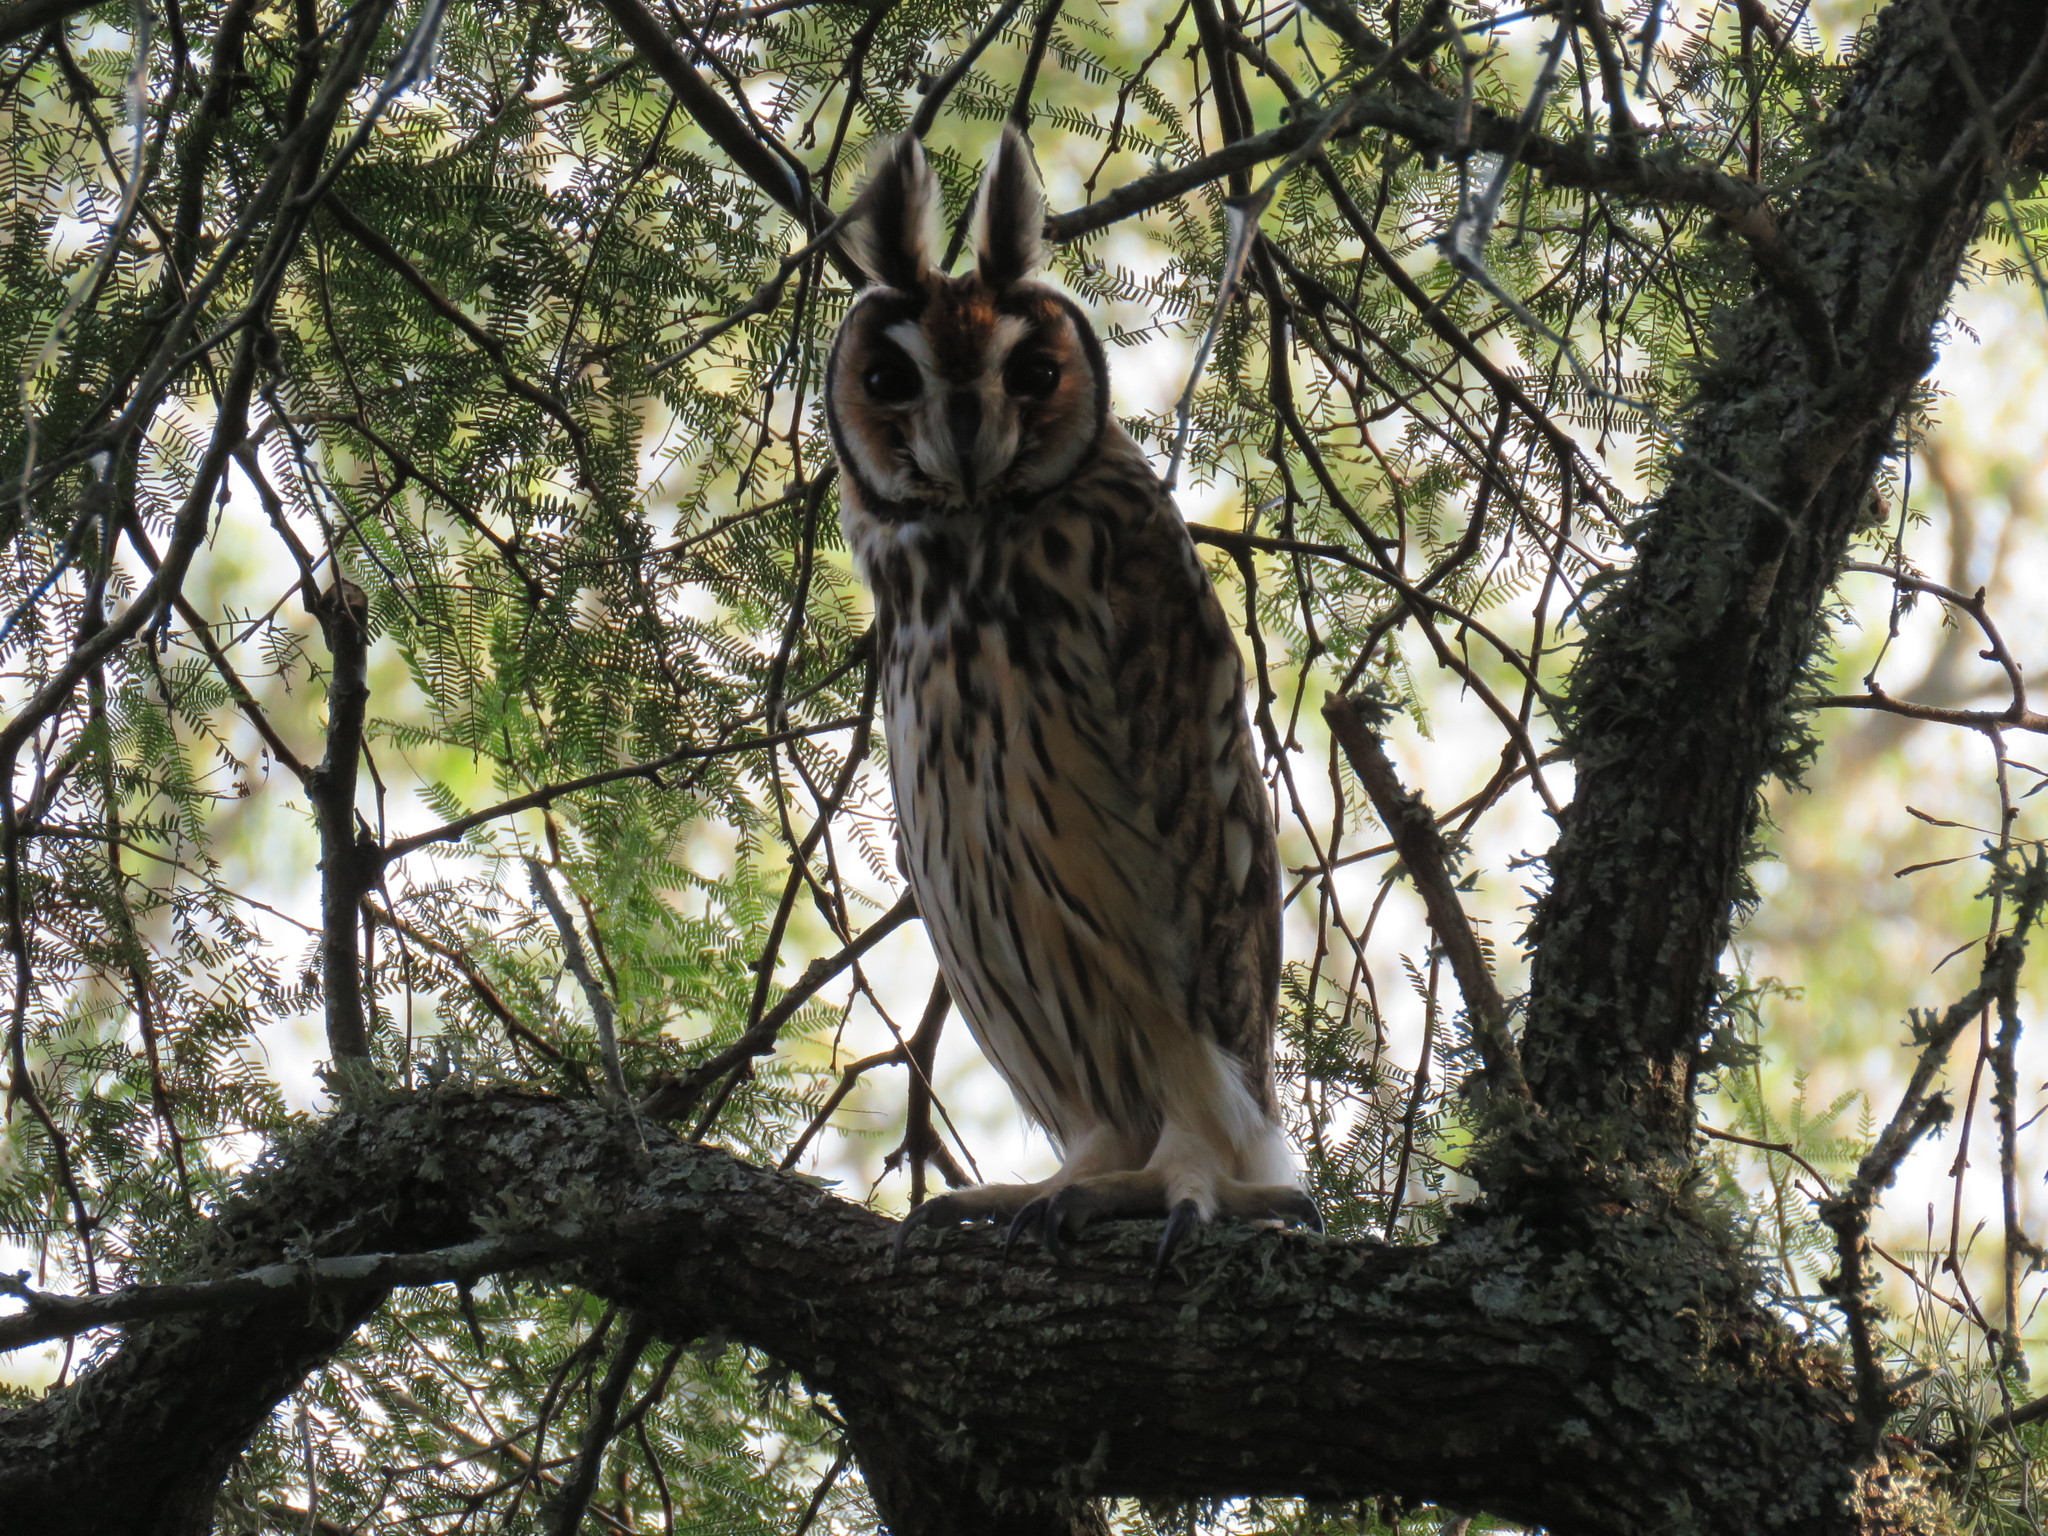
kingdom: Animalia
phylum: Chordata
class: Aves
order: Strigiformes
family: Strigidae
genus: Pseudoscops
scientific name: Pseudoscops clamator
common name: Striped owl
